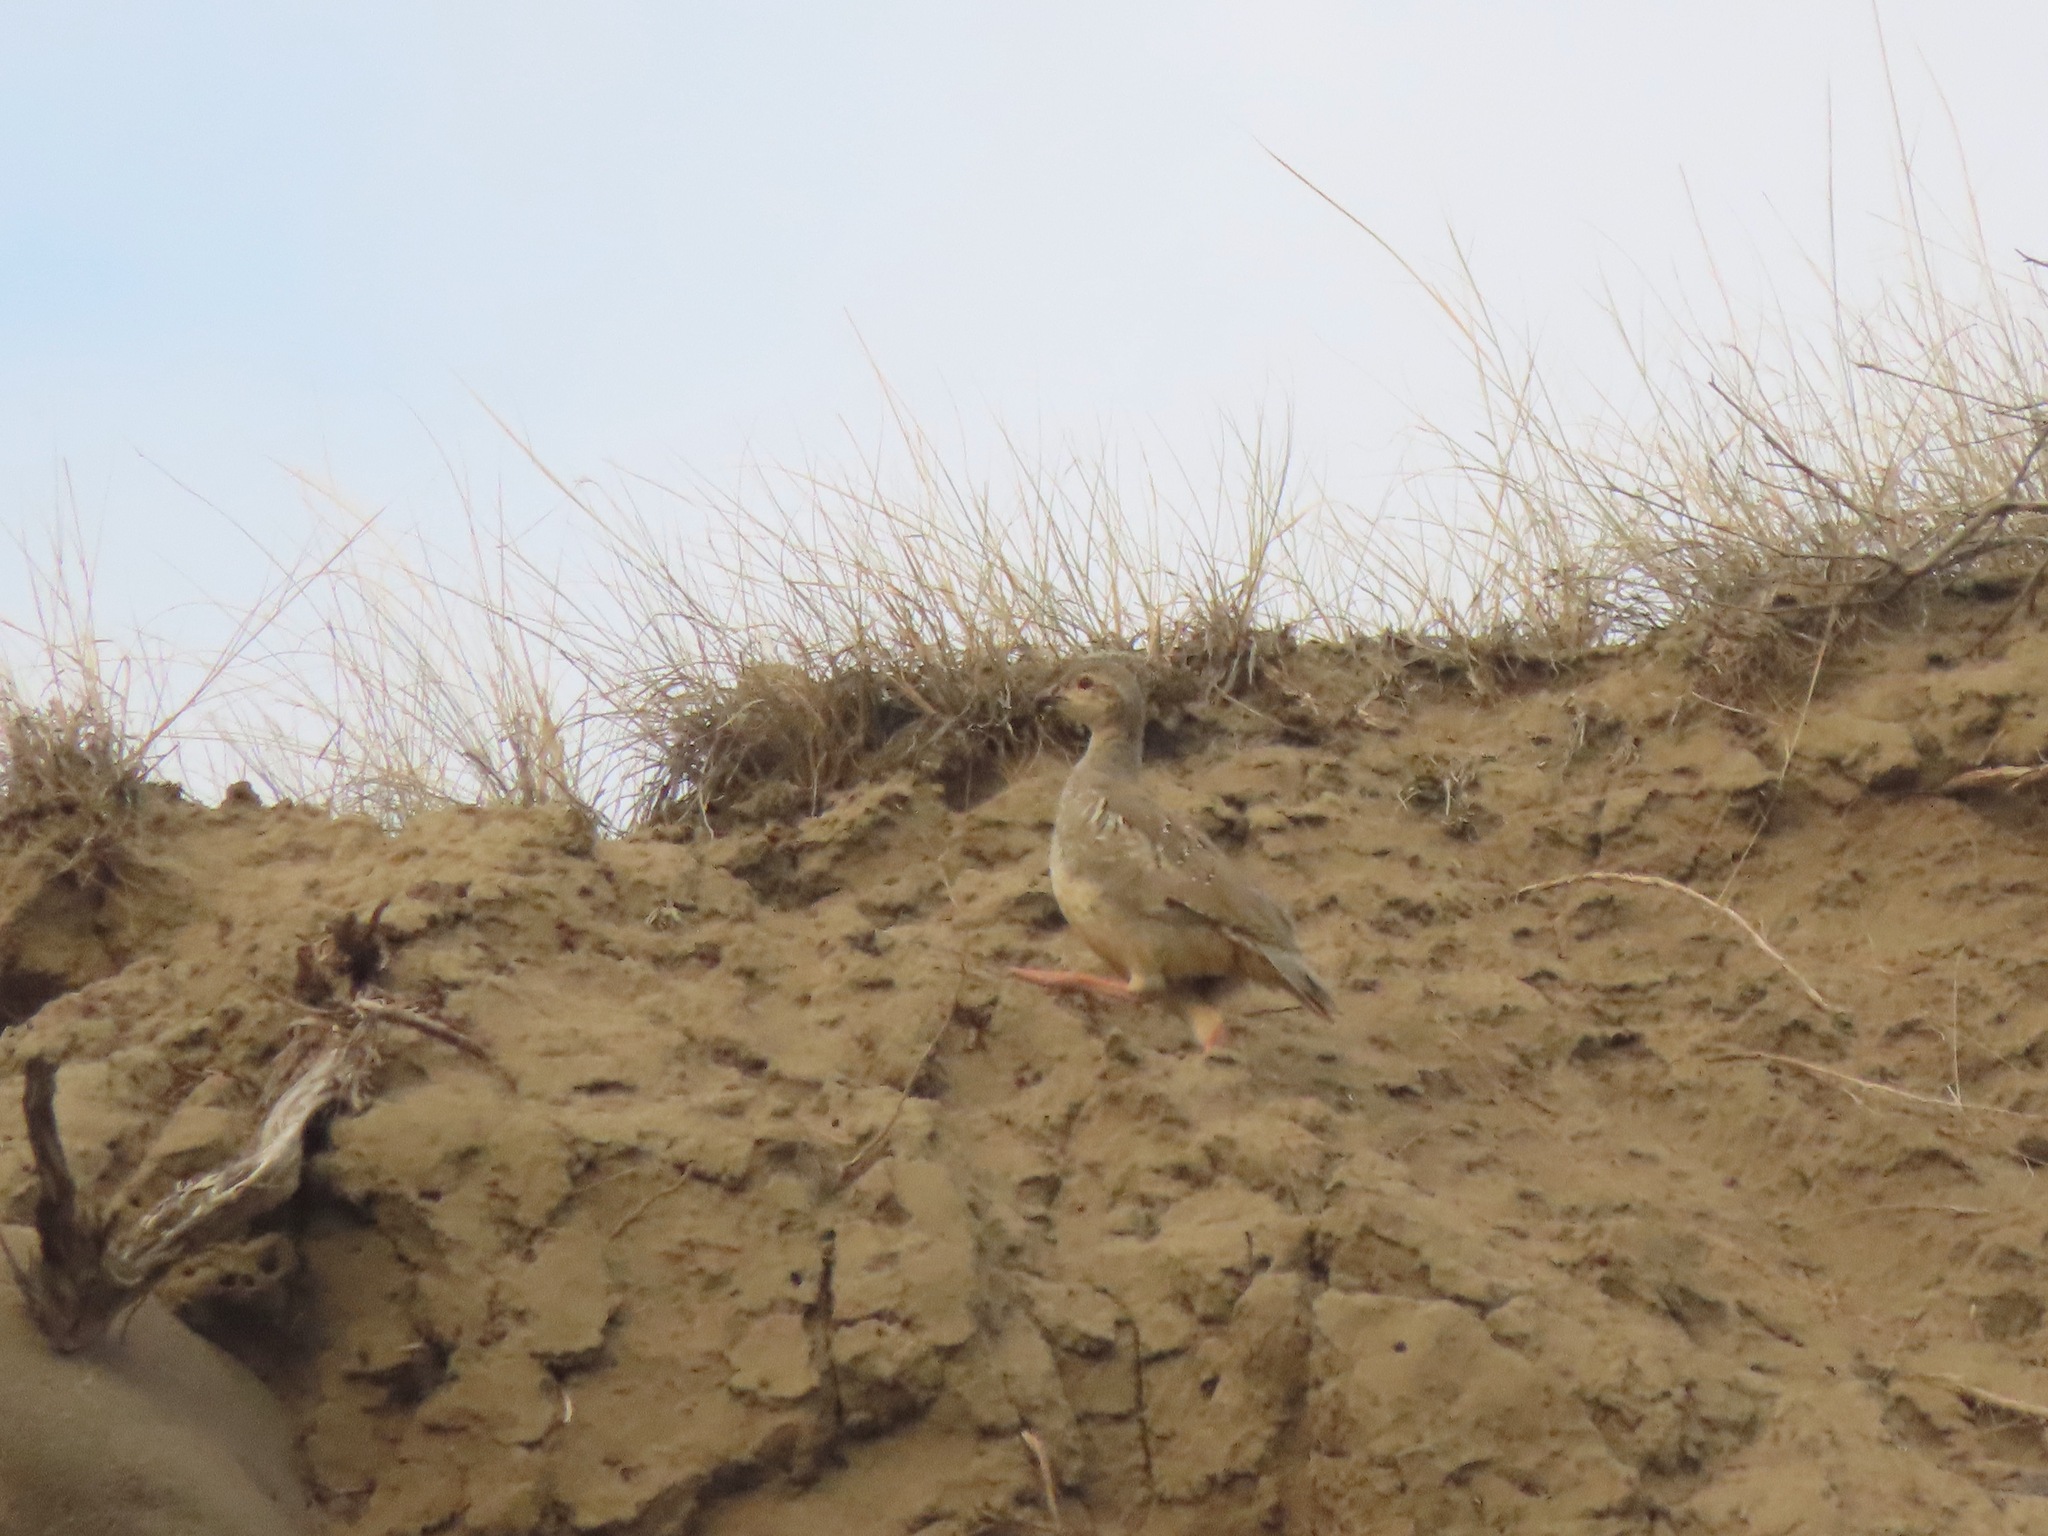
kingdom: Animalia
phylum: Chordata
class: Aves
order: Galliformes
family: Phasianidae
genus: Alectoris
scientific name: Alectoris chukar
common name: Chukar
